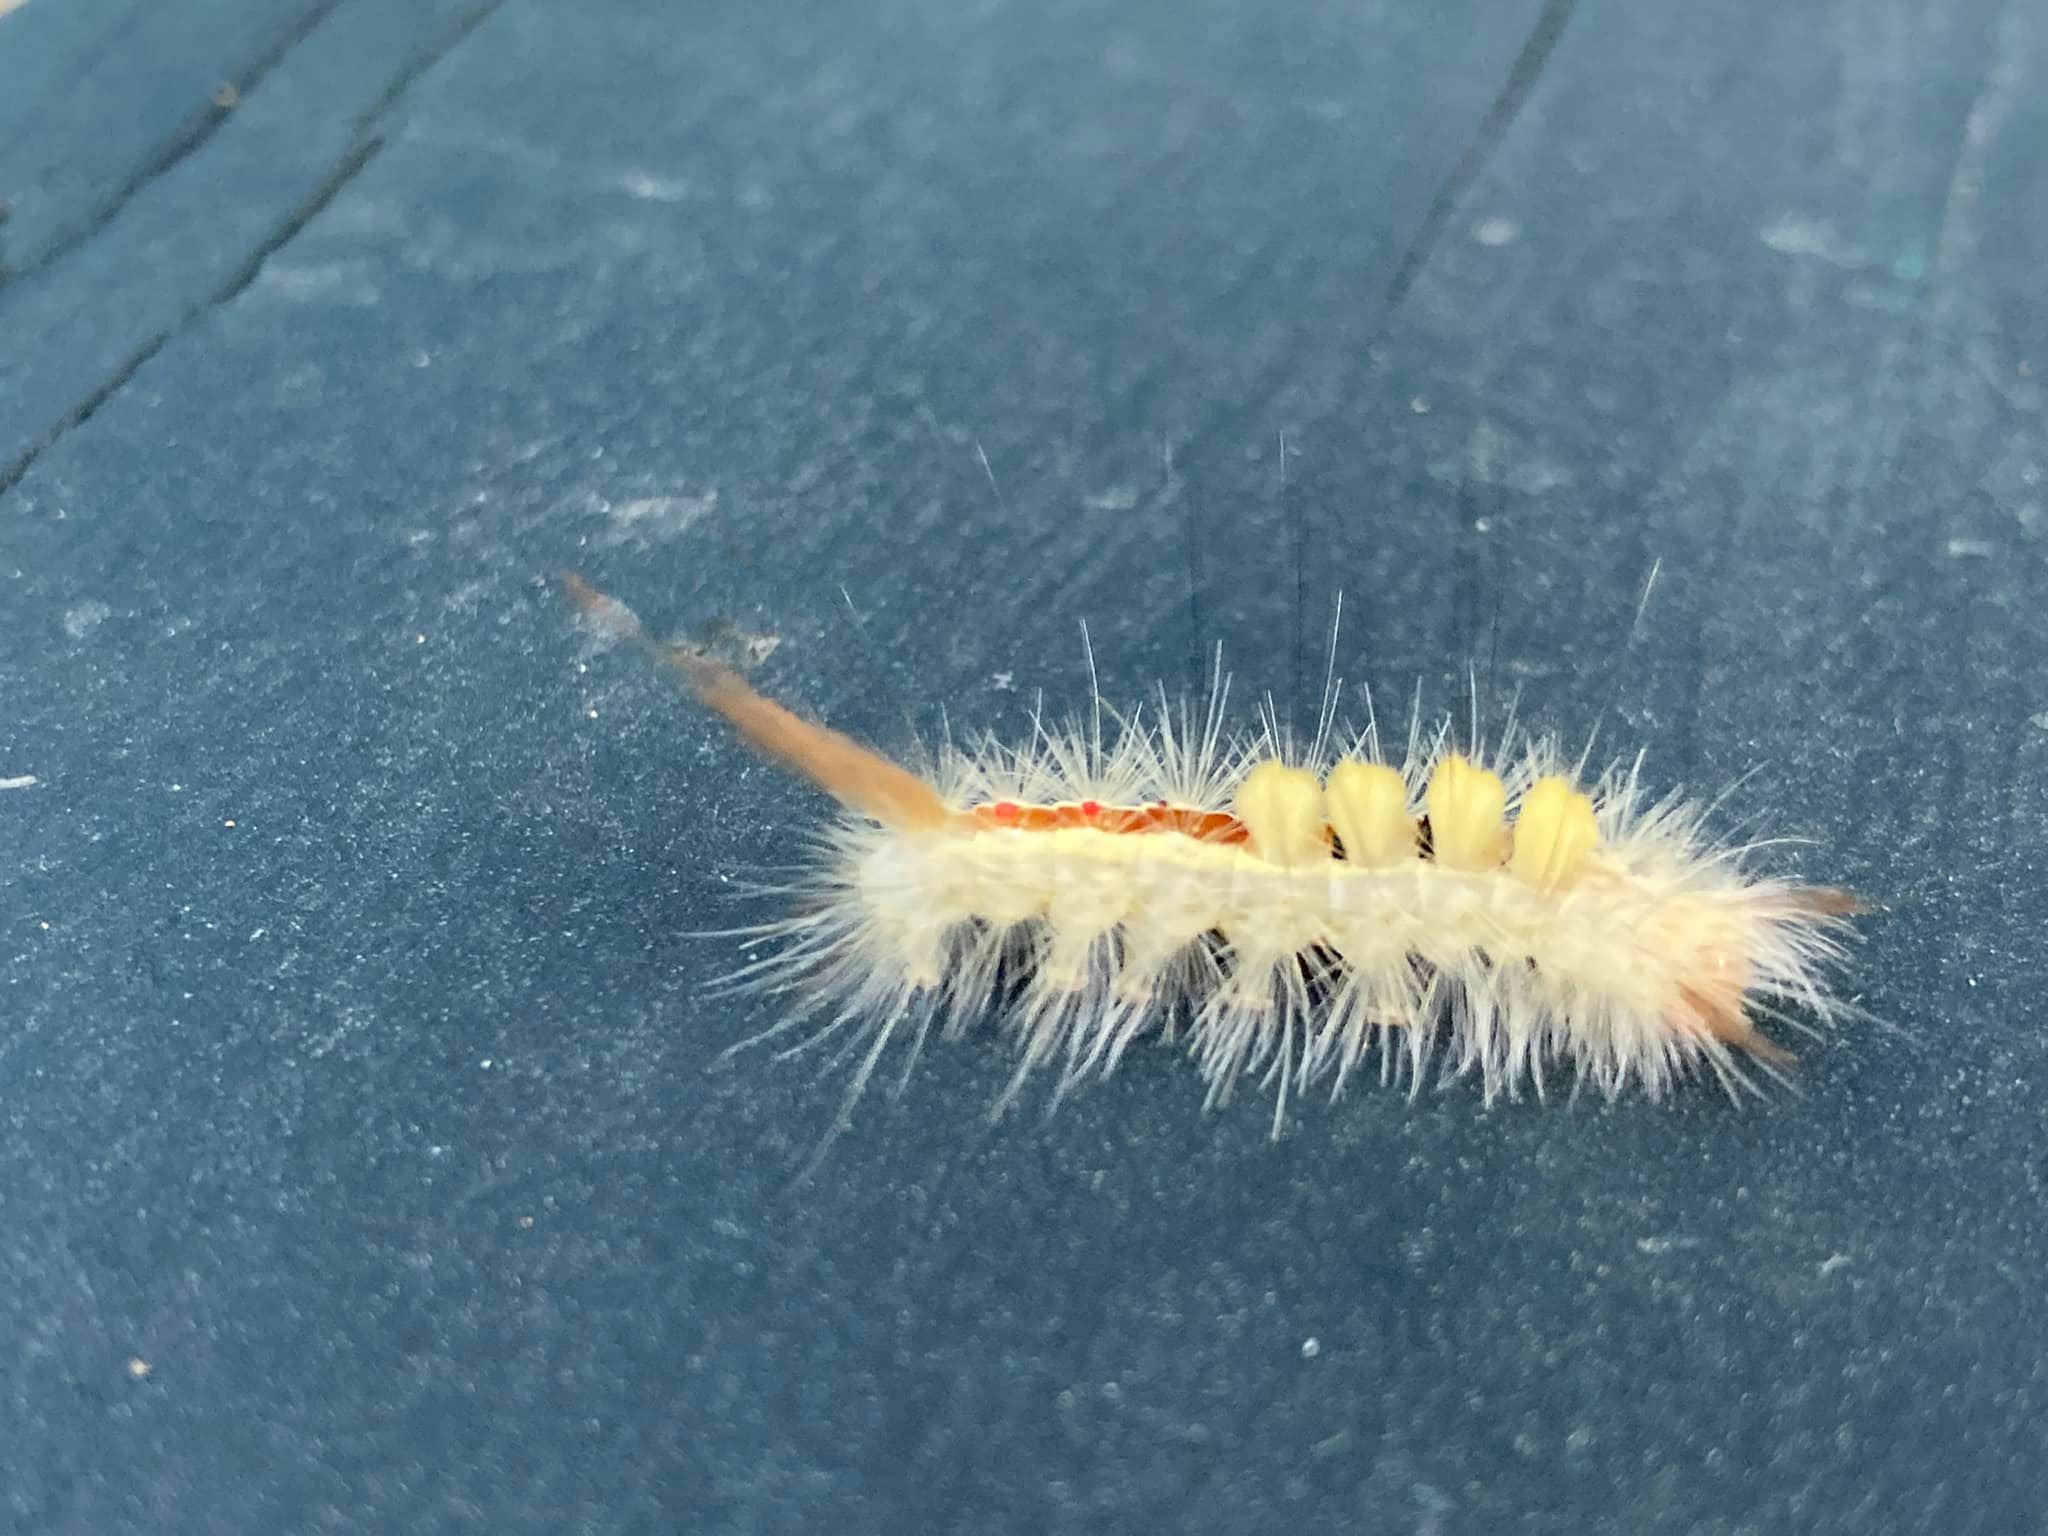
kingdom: Animalia
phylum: Arthropoda
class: Insecta
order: Lepidoptera
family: Erebidae
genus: Orgyia
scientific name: Orgyia leucostigma
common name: White-marked tussock moth
